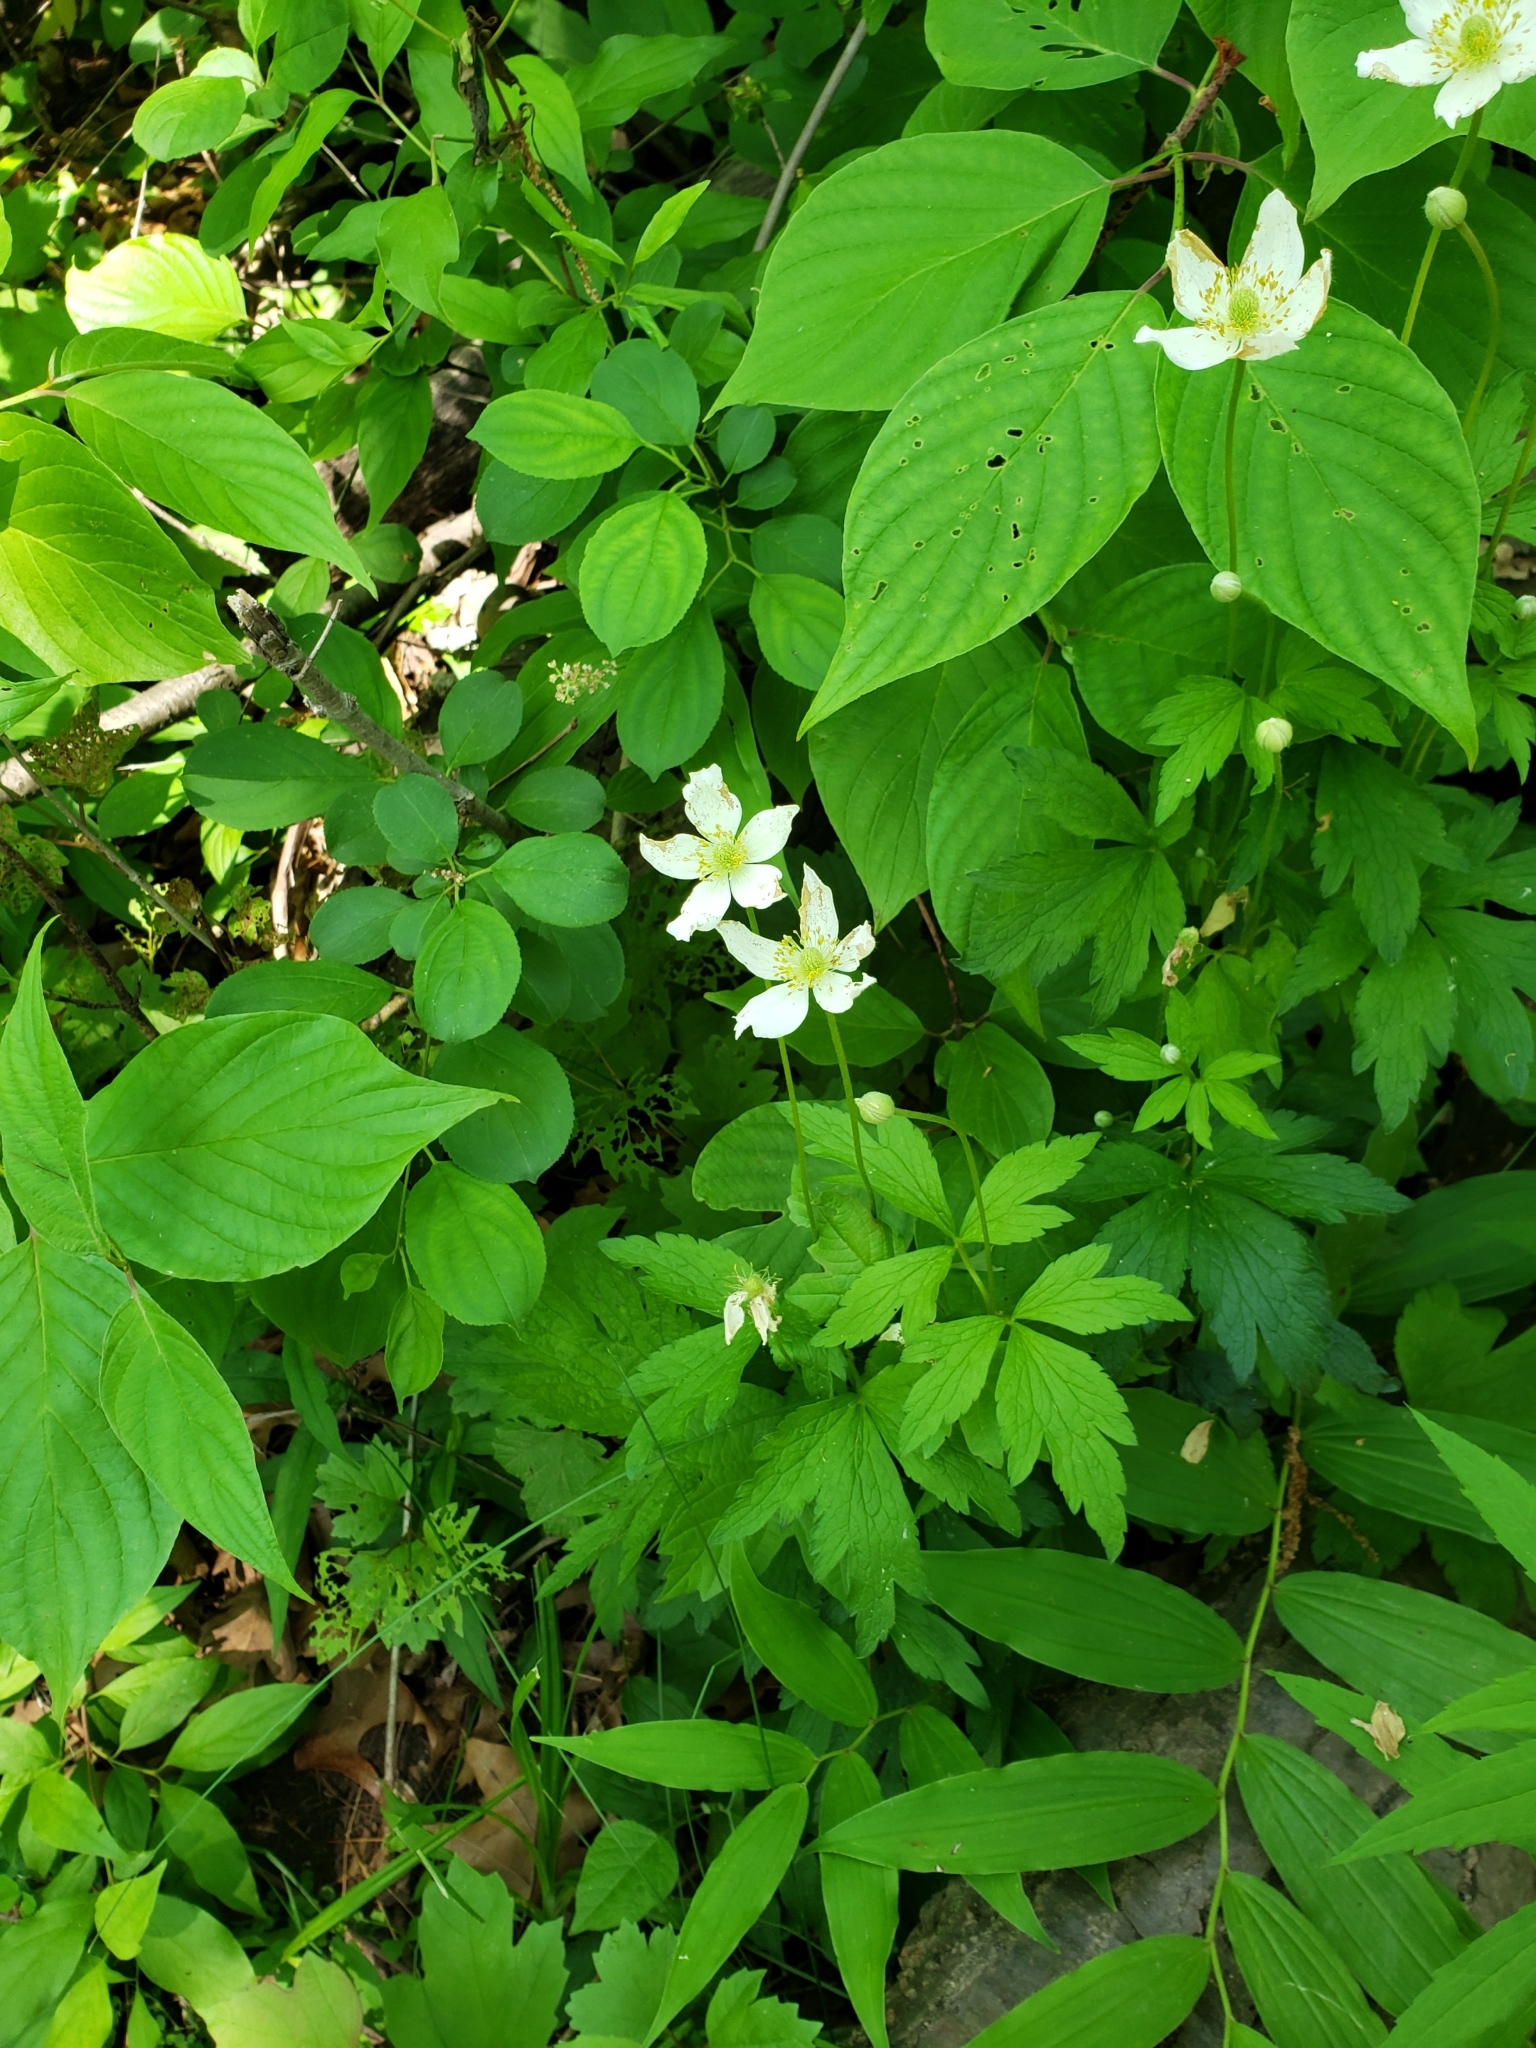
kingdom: Plantae
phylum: Tracheophyta
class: Magnoliopsida
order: Ranunculales
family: Ranunculaceae
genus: Anemone
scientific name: Anemone virginiana
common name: Tall anemone
